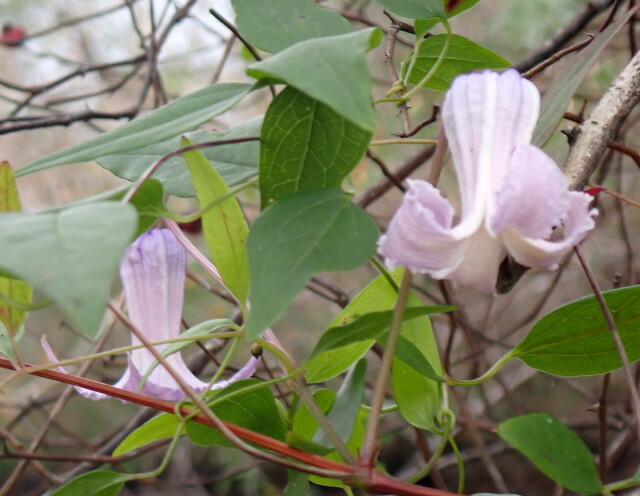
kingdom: Plantae
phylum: Tracheophyta
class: Magnoliopsida
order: Ranunculales
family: Ranunculaceae
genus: Clematis
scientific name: Clematis crispa
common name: Curly clematis
